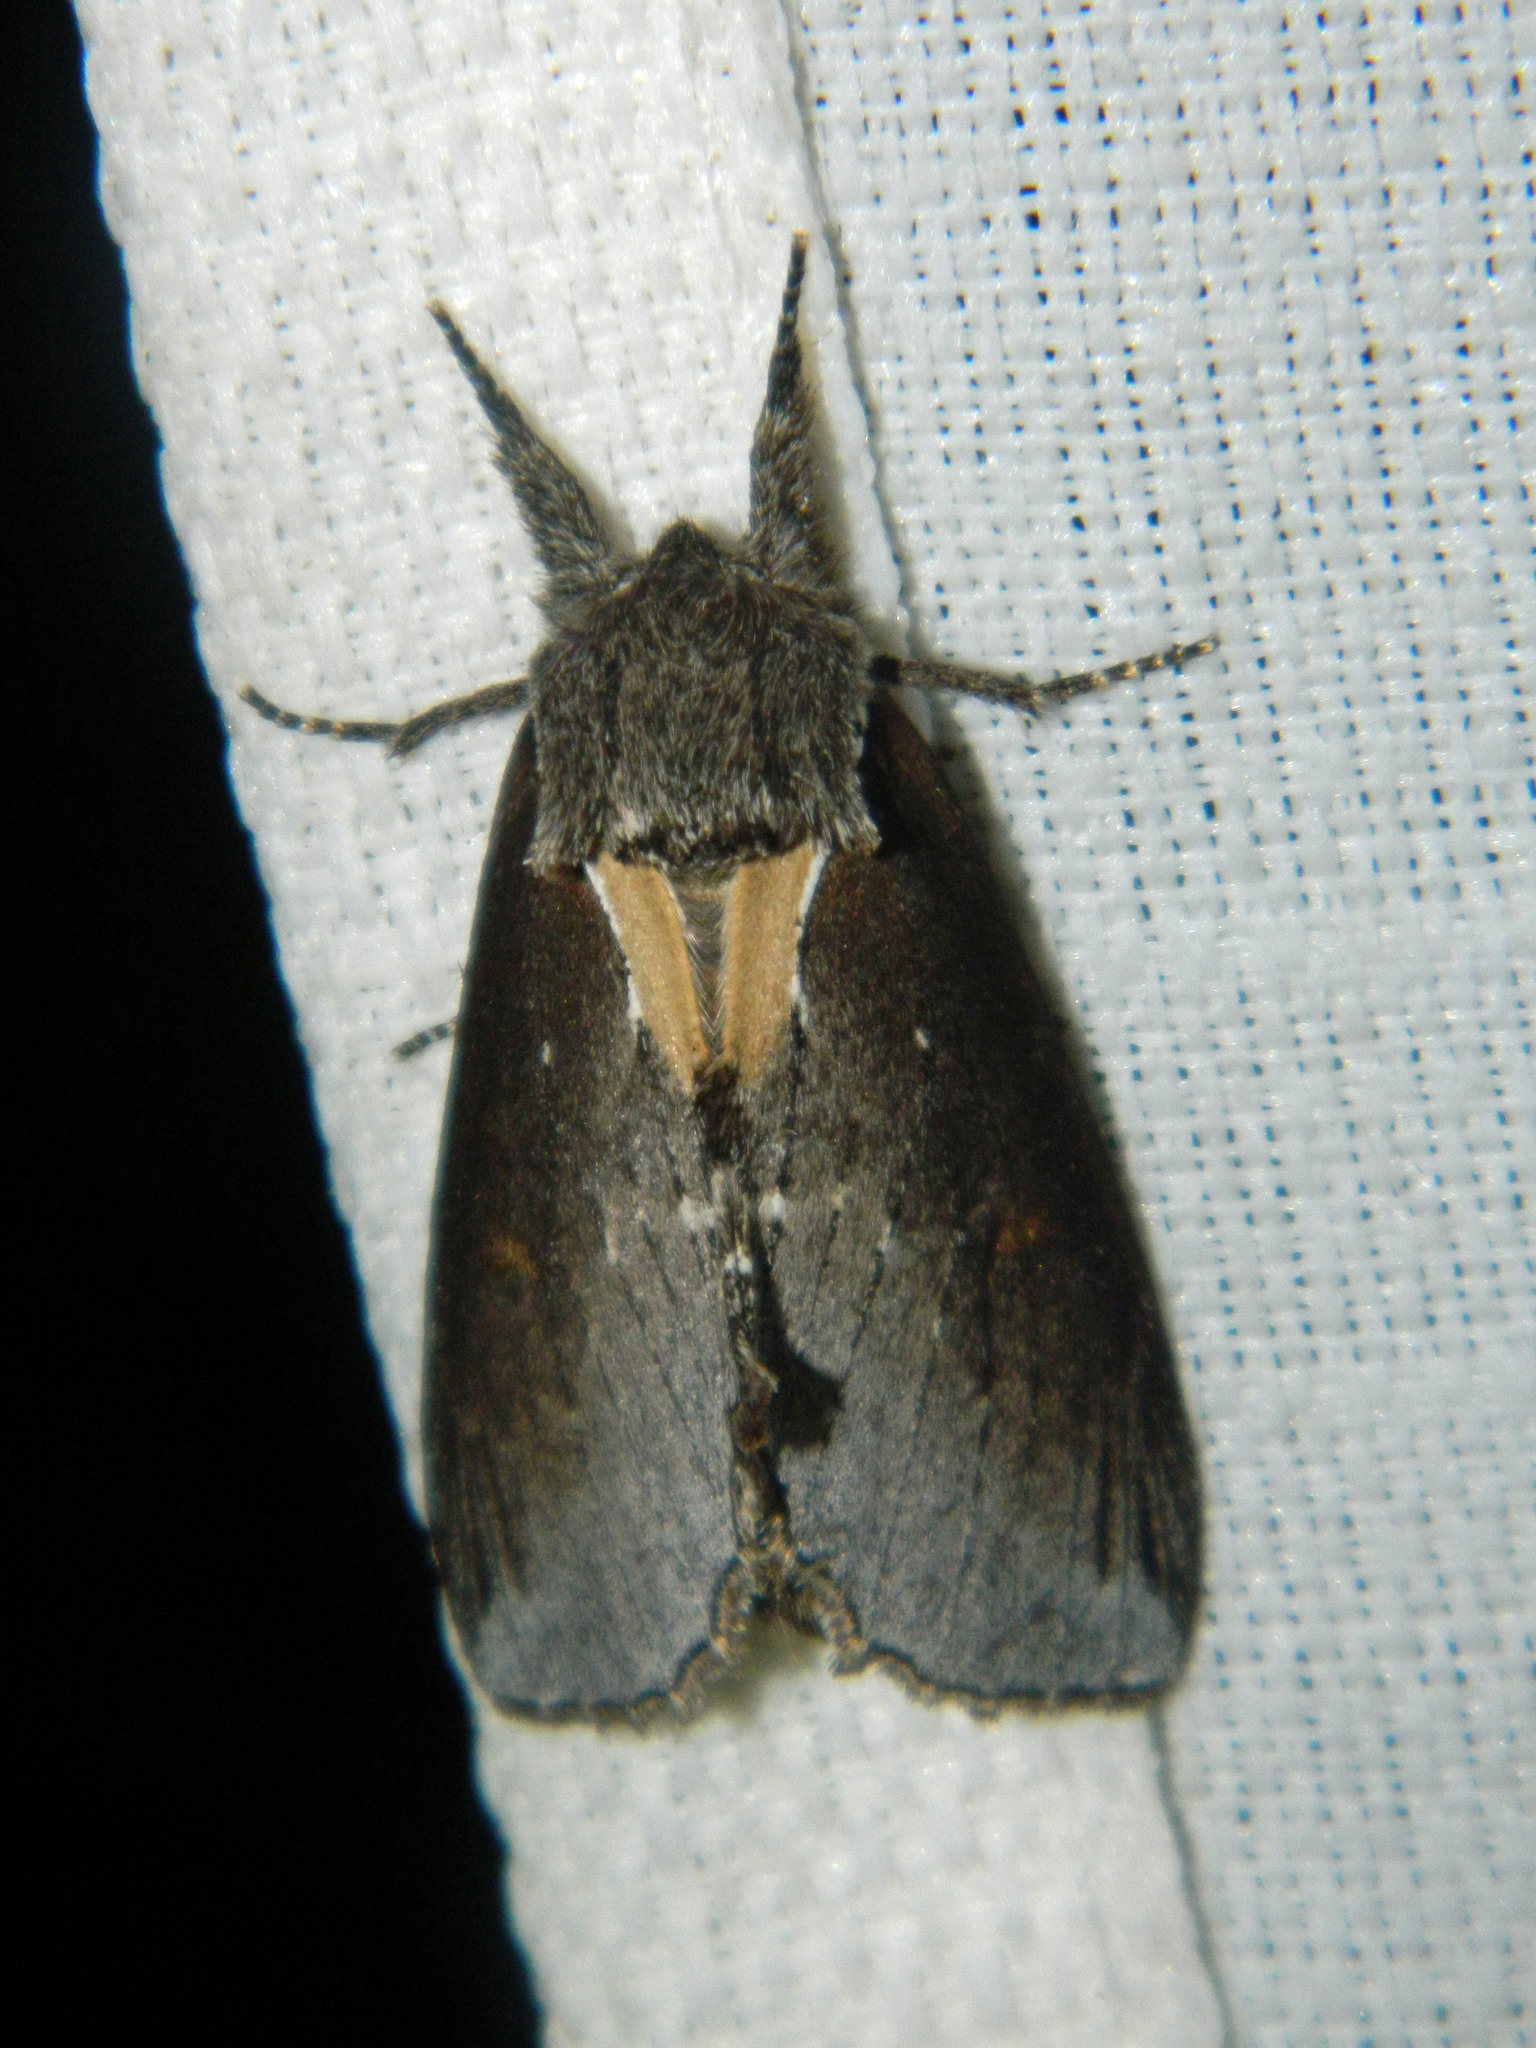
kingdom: Animalia
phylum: Arthropoda
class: Insecta
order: Lepidoptera
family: Notodontidae
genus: Pheosidea
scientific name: Pheosidea elegans
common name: Elegant prominent
